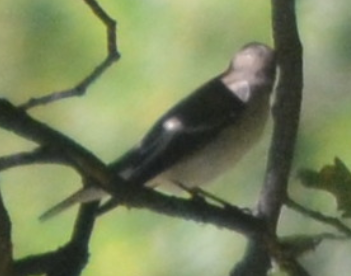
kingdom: Animalia
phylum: Chordata
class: Aves
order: Passeriformes
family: Muscicapidae
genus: Ficedula
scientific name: Ficedula hypoleuca
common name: European pied flycatcher
